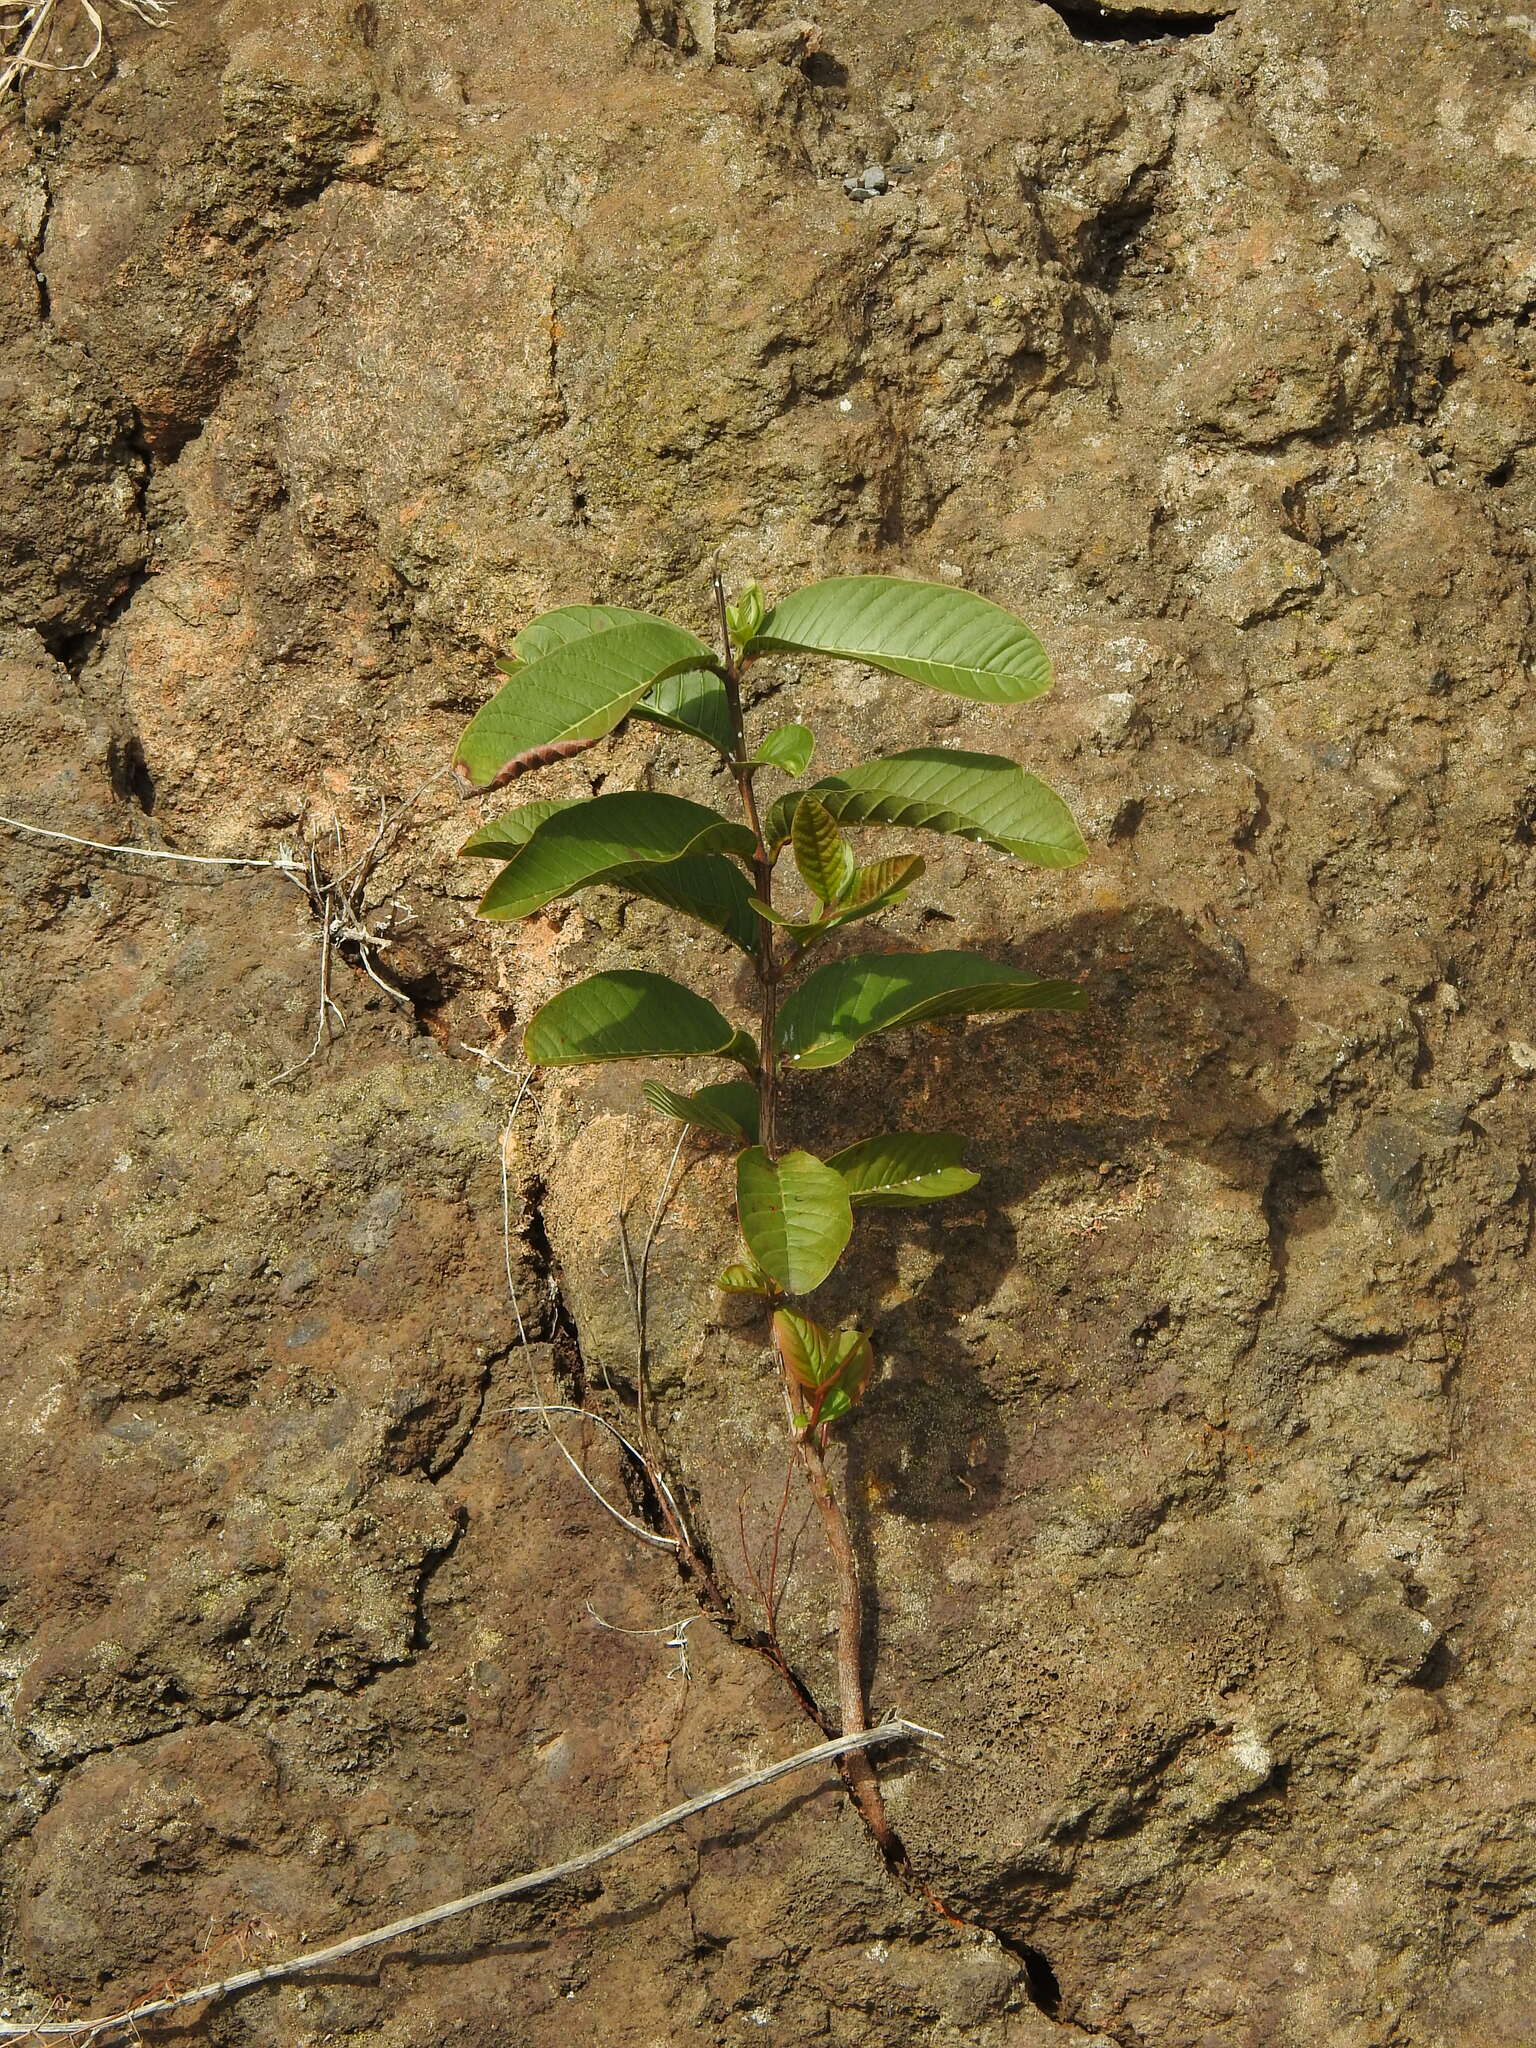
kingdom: Plantae
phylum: Tracheophyta
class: Magnoliopsida
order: Myrtales
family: Myrtaceae
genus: Psidium
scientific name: Psidium guajava
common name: Guava
